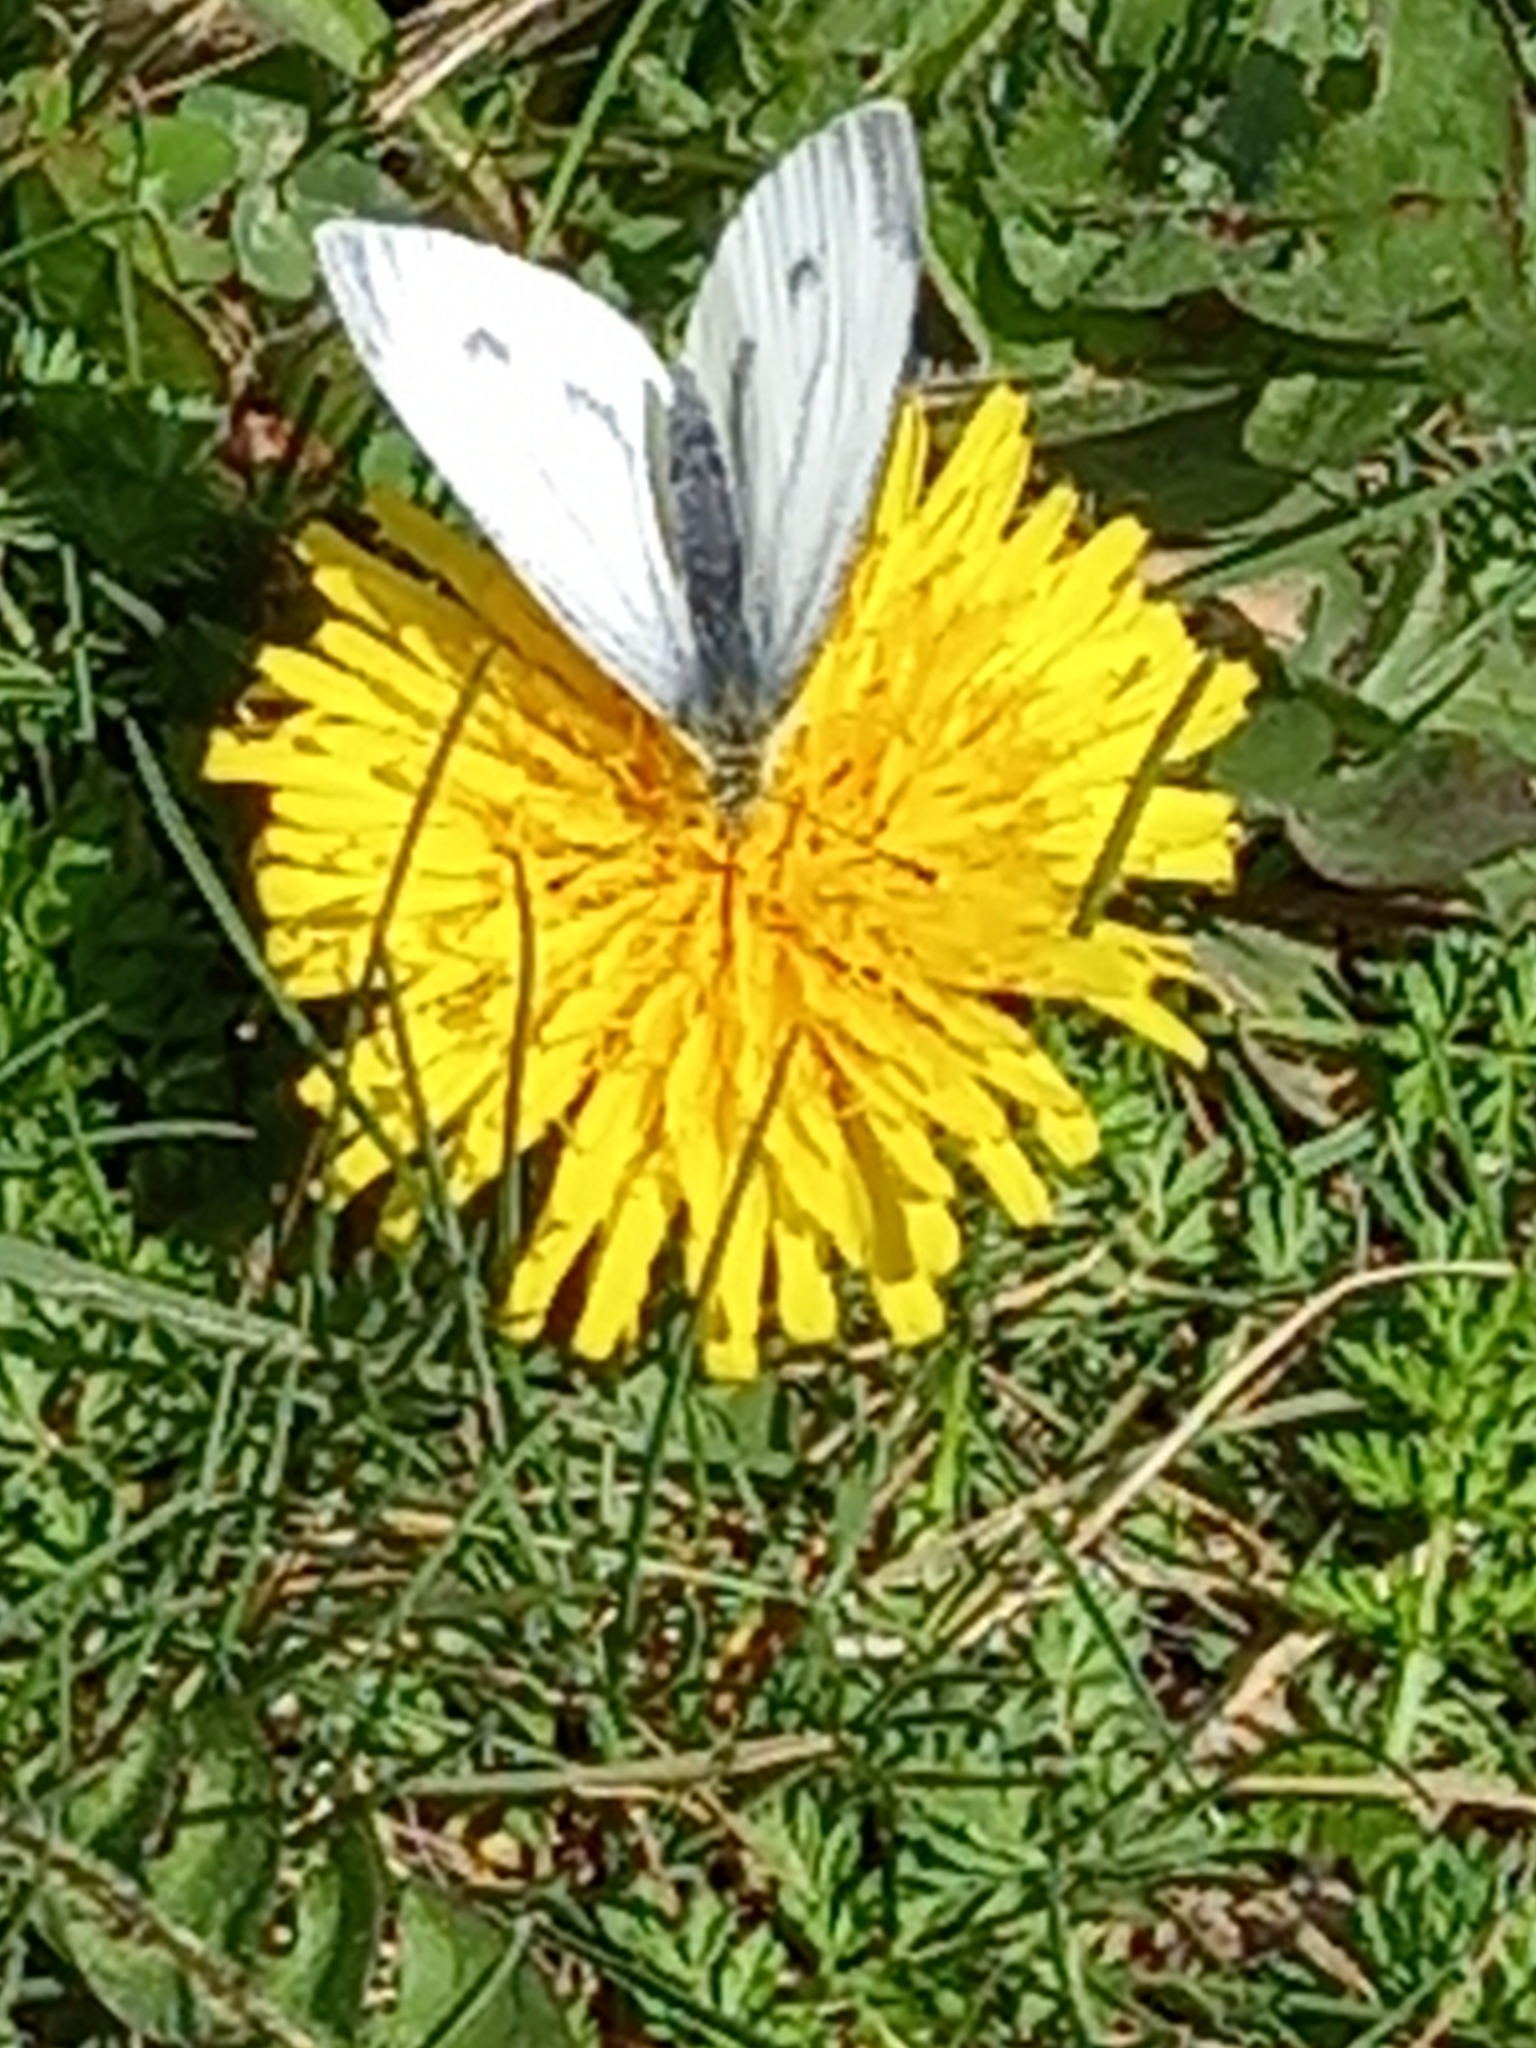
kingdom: Animalia
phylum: Arthropoda
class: Insecta
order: Lepidoptera
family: Pieridae
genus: Pieris
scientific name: Pieris napi
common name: Green-veined white
